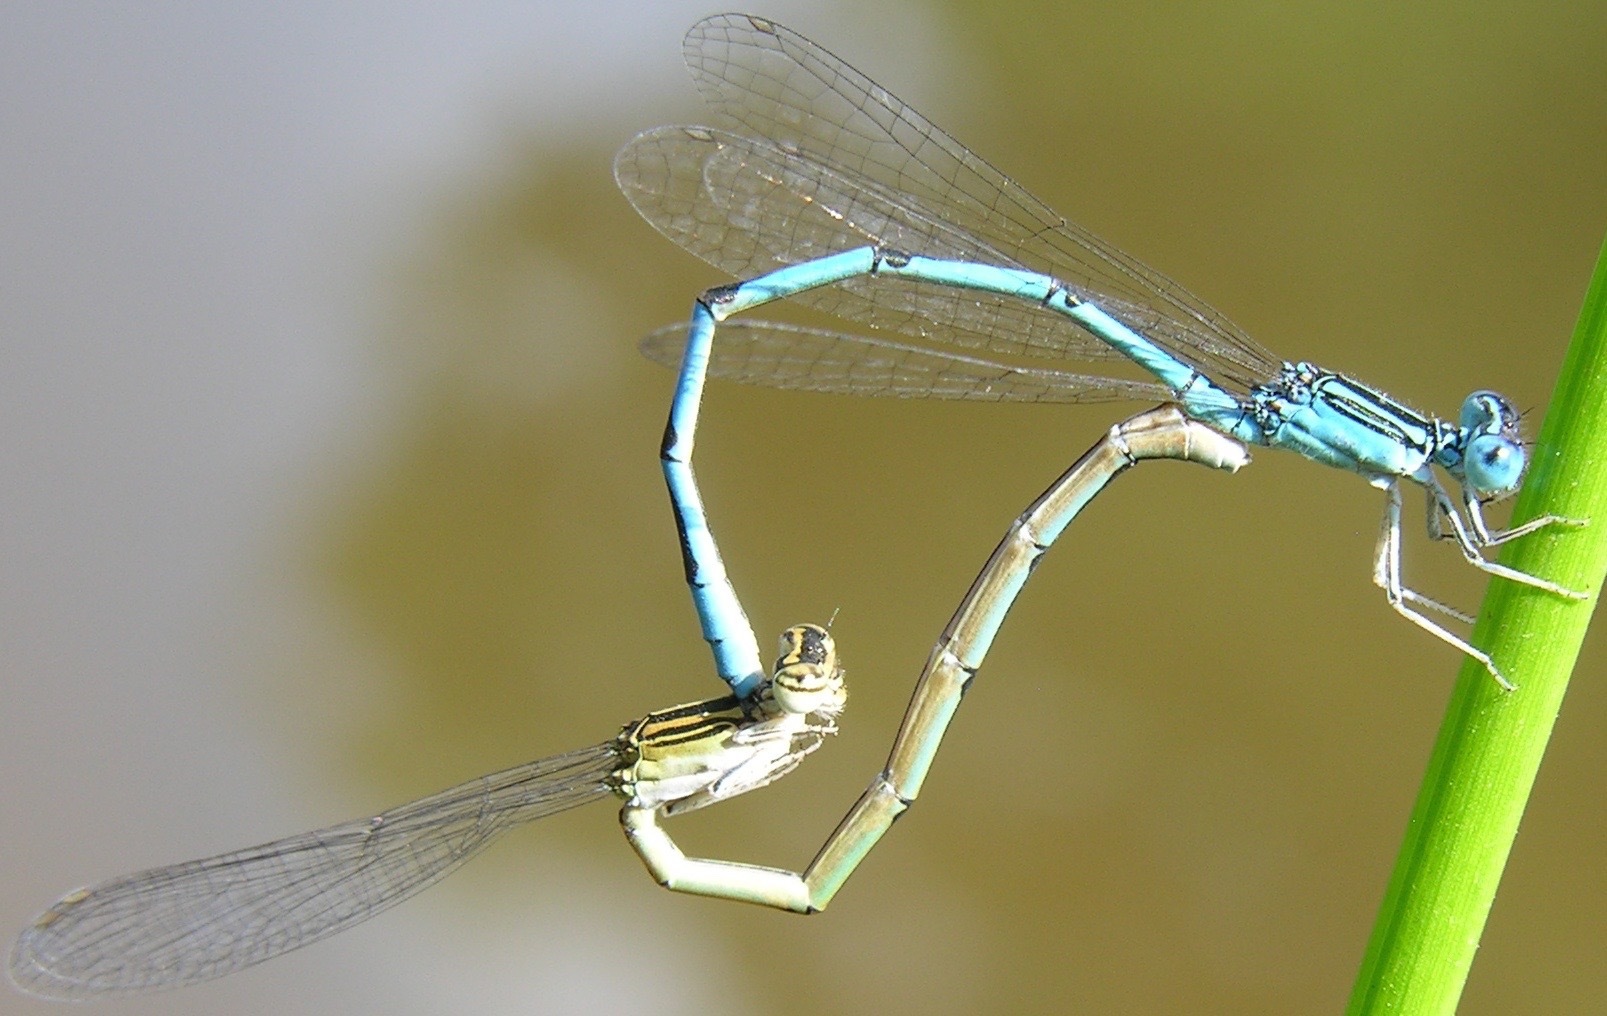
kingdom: Animalia
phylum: Arthropoda
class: Insecta
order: Odonata
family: Coenagrionidae
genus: Enallagma
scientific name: Enallagma basidens
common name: Double-striped bluet
